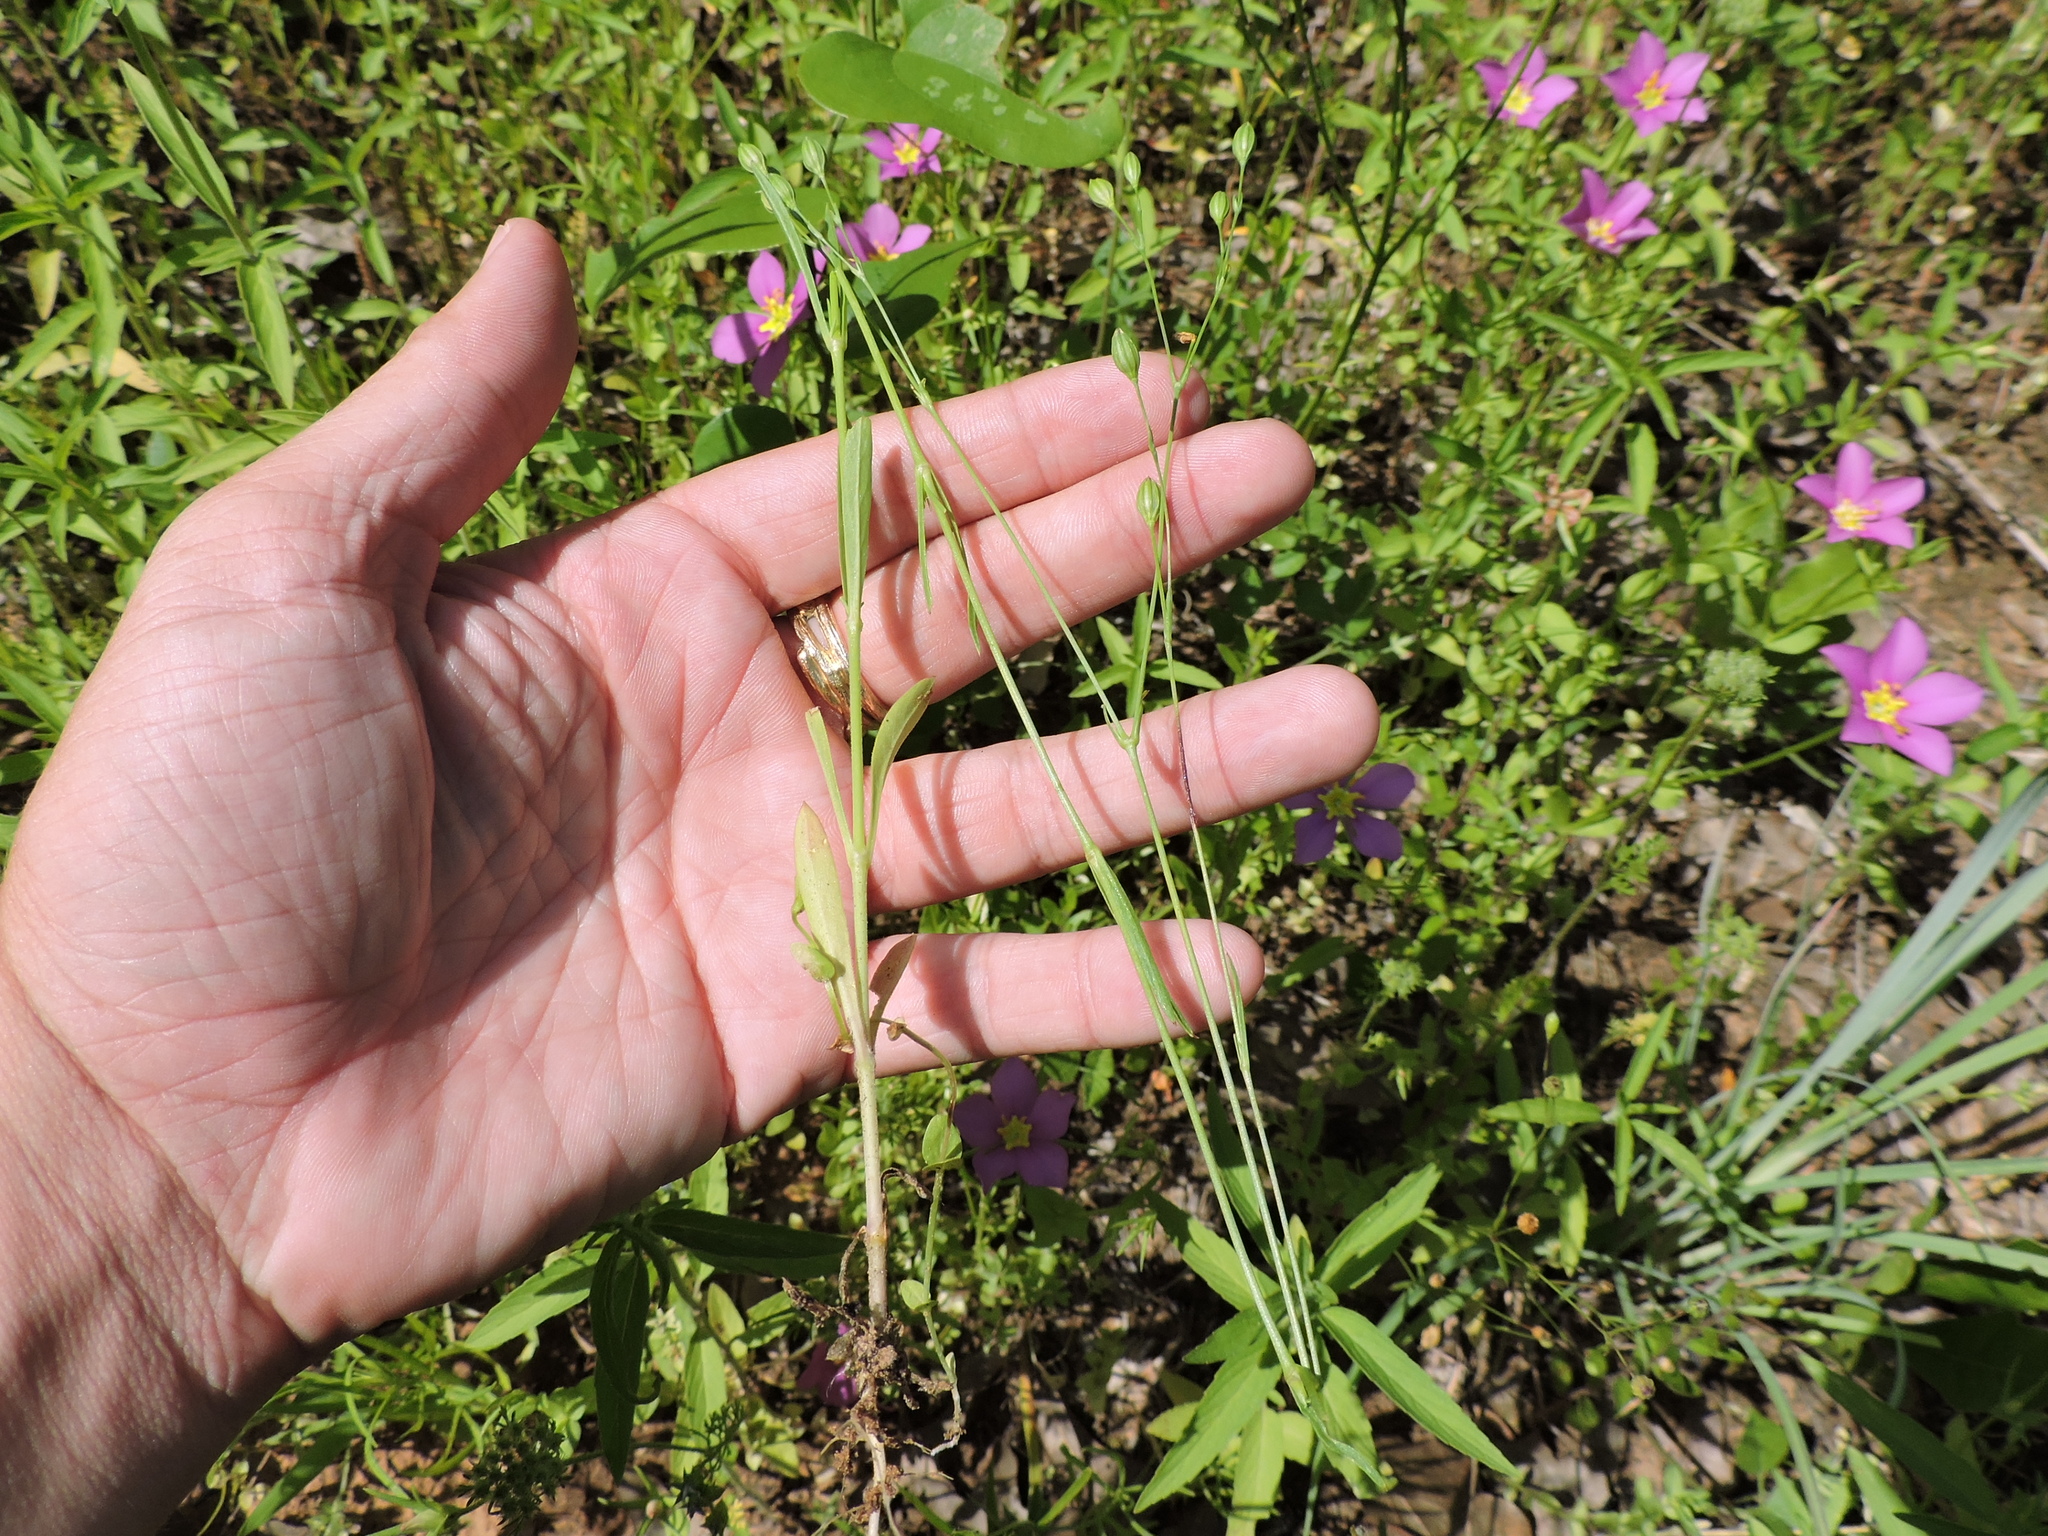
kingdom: Plantae
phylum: Tracheophyta
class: Magnoliopsida
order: Caryophyllales
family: Caryophyllaceae
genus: Silene
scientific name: Silene antirrhina
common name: Sleepy catchfly
